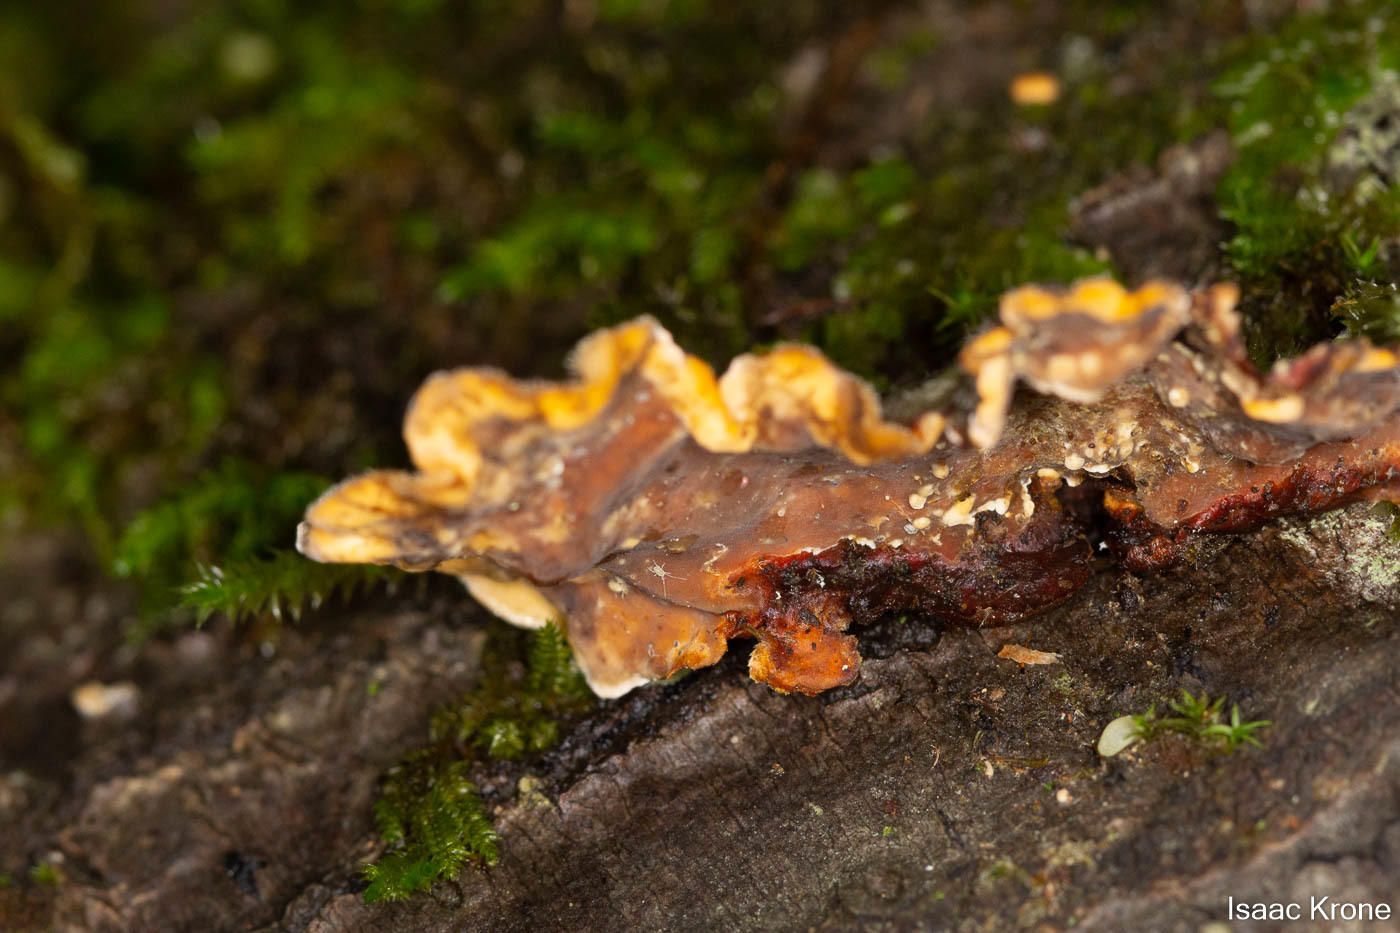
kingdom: Fungi
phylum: Basidiomycota
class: Agaricomycetes
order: Russulales
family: Stereaceae
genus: Stereum
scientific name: Stereum hirsutum
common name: Hairy curtain crust
